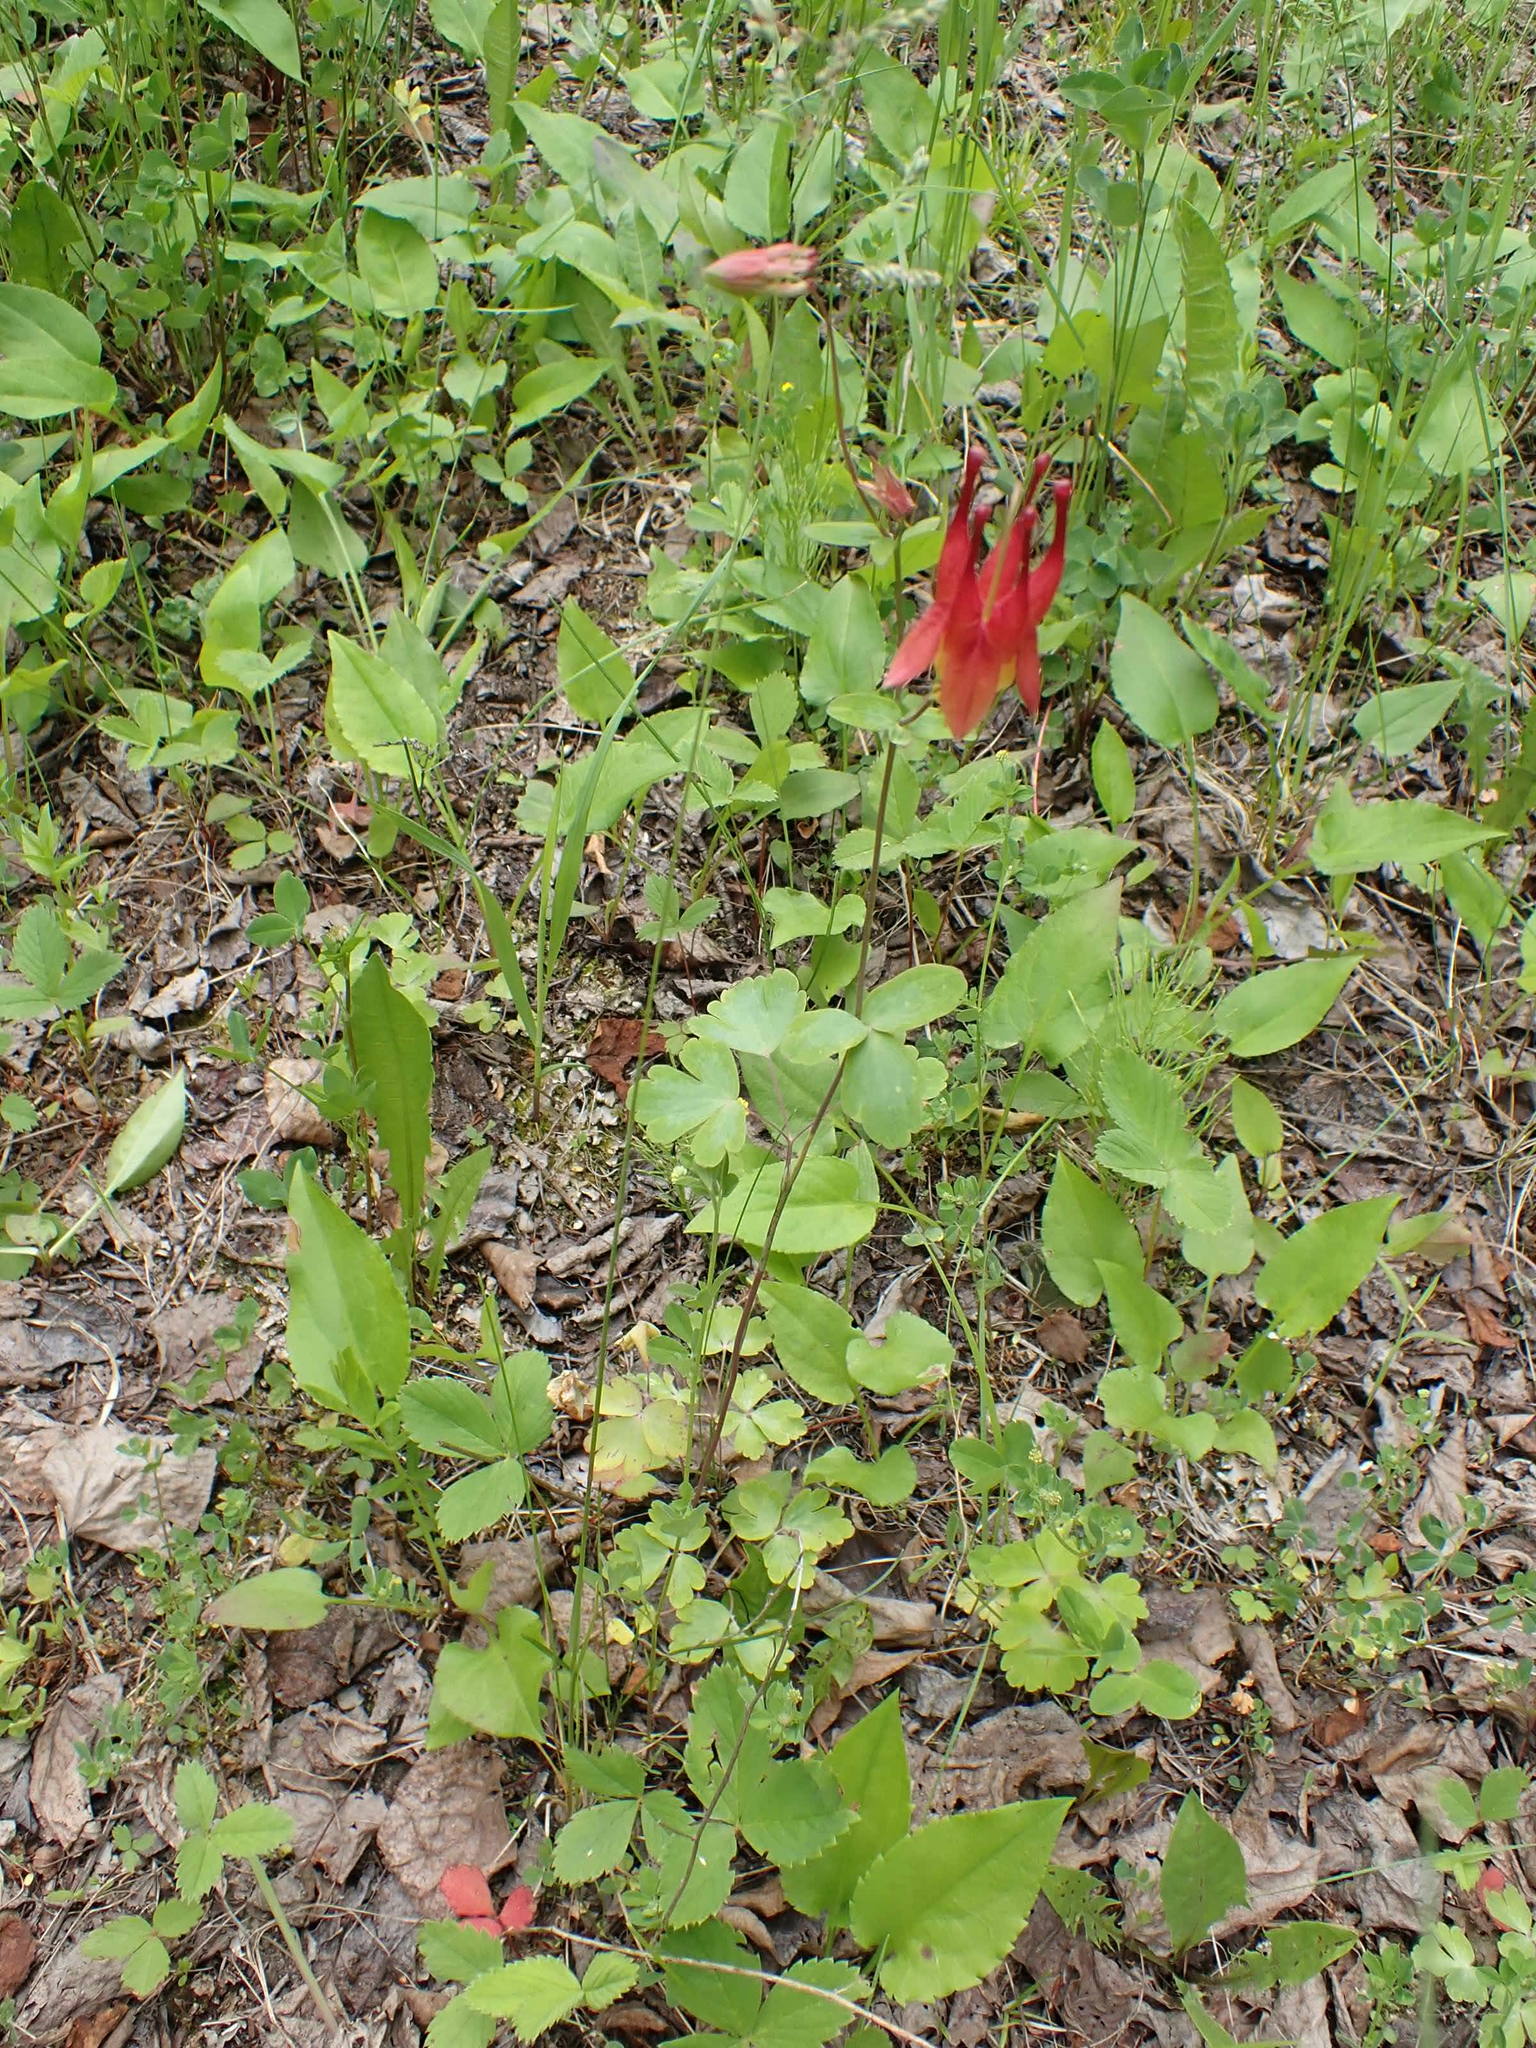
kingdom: Plantae
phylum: Tracheophyta
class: Magnoliopsida
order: Ranunculales
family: Ranunculaceae
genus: Aquilegia
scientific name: Aquilegia canadensis
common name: American columbine
